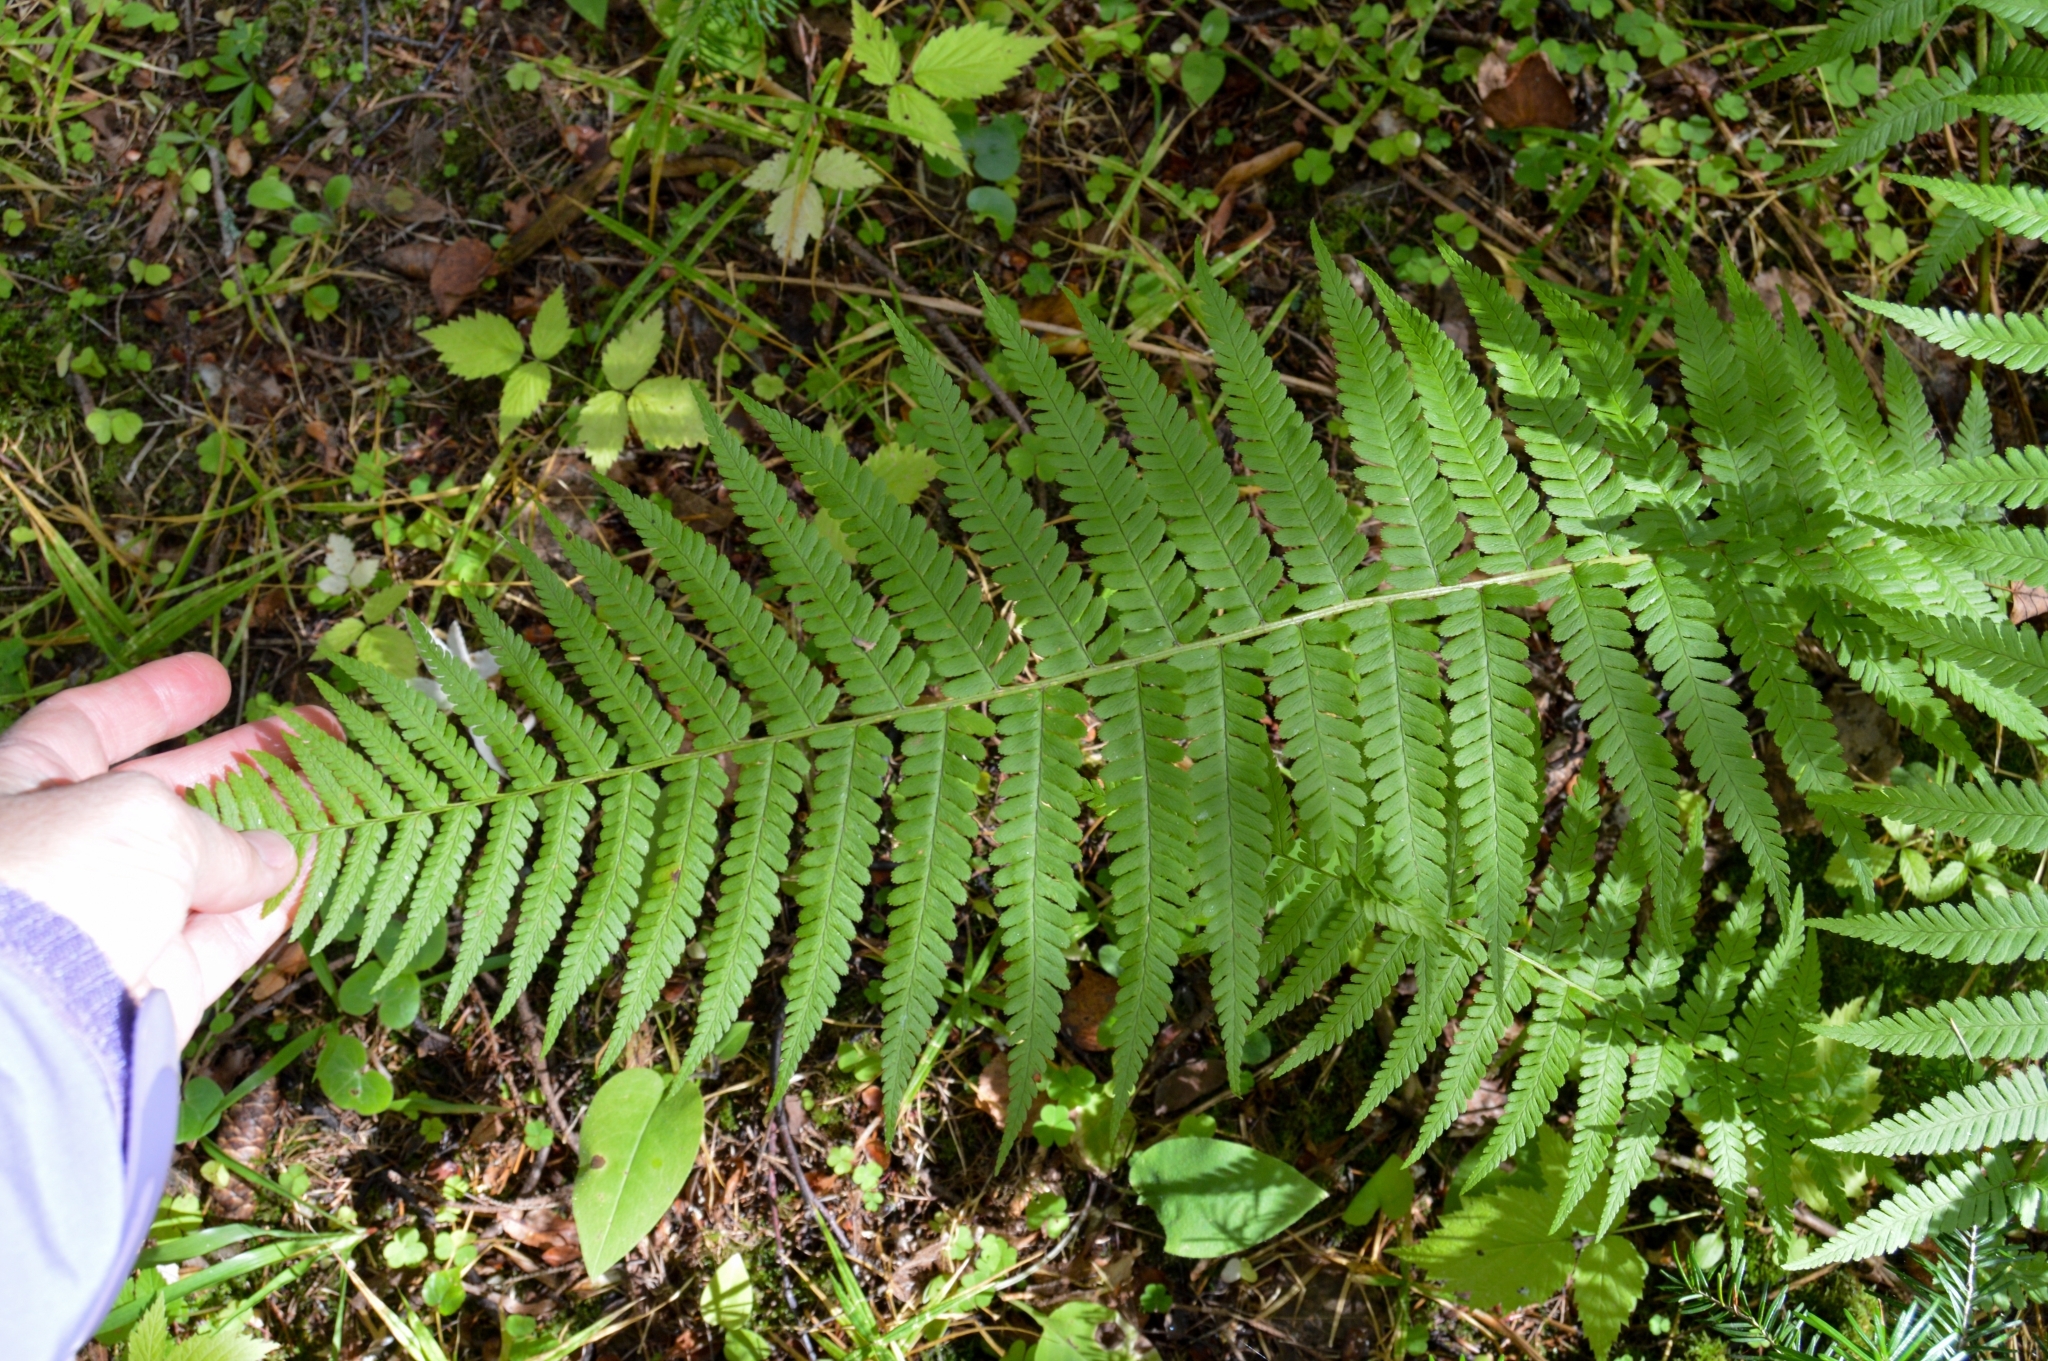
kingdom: Plantae
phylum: Tracheophyta
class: Polypodiopsida
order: Polypodiales
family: Dryopteridaceae
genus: Dryopteris
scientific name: Dryopteris filix-mas
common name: Male fern
